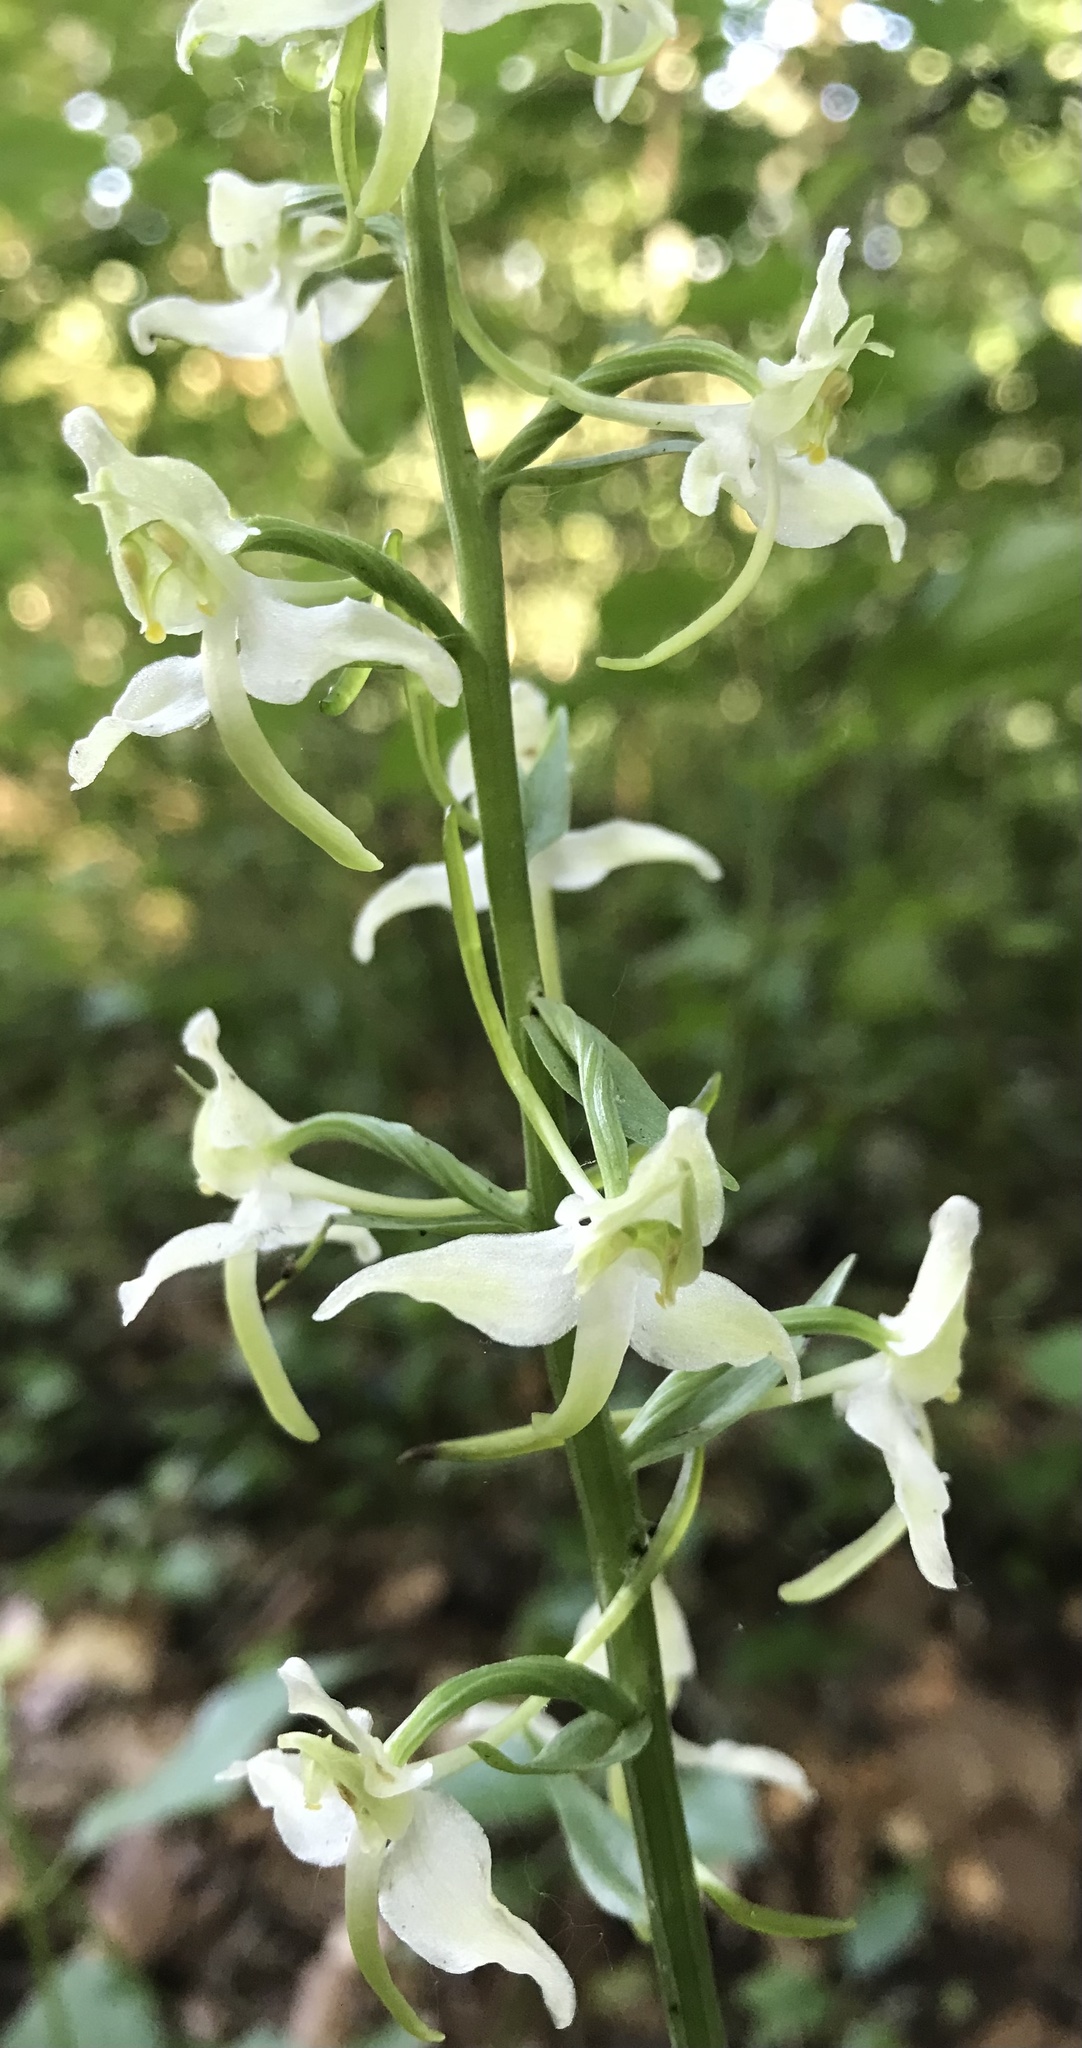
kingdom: Plantae
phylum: Tracheophyta
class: Liliopsida
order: Asparagales
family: Orchidaceae
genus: Platanthera
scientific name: Platanthera chlorantha
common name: Greater butterfly-orchid
